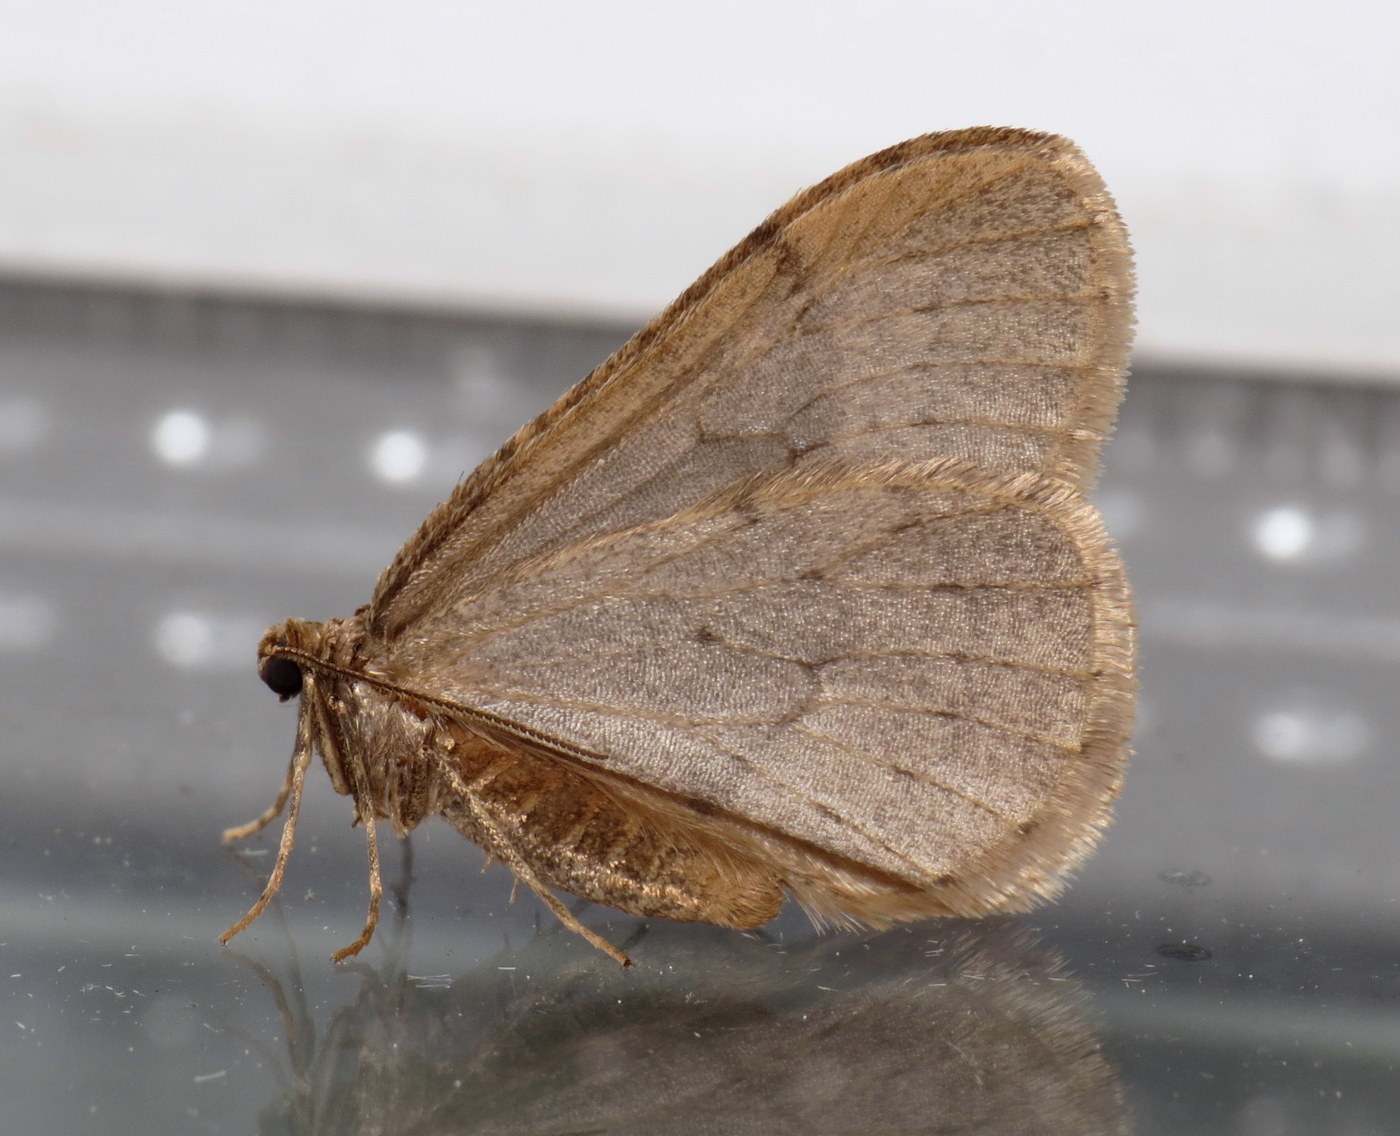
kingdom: Animalia
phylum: Arthropoda
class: Insecta
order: Lepidoptera
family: Geometridae
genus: Operophtera
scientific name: Operophtera brumata
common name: Winter moth
